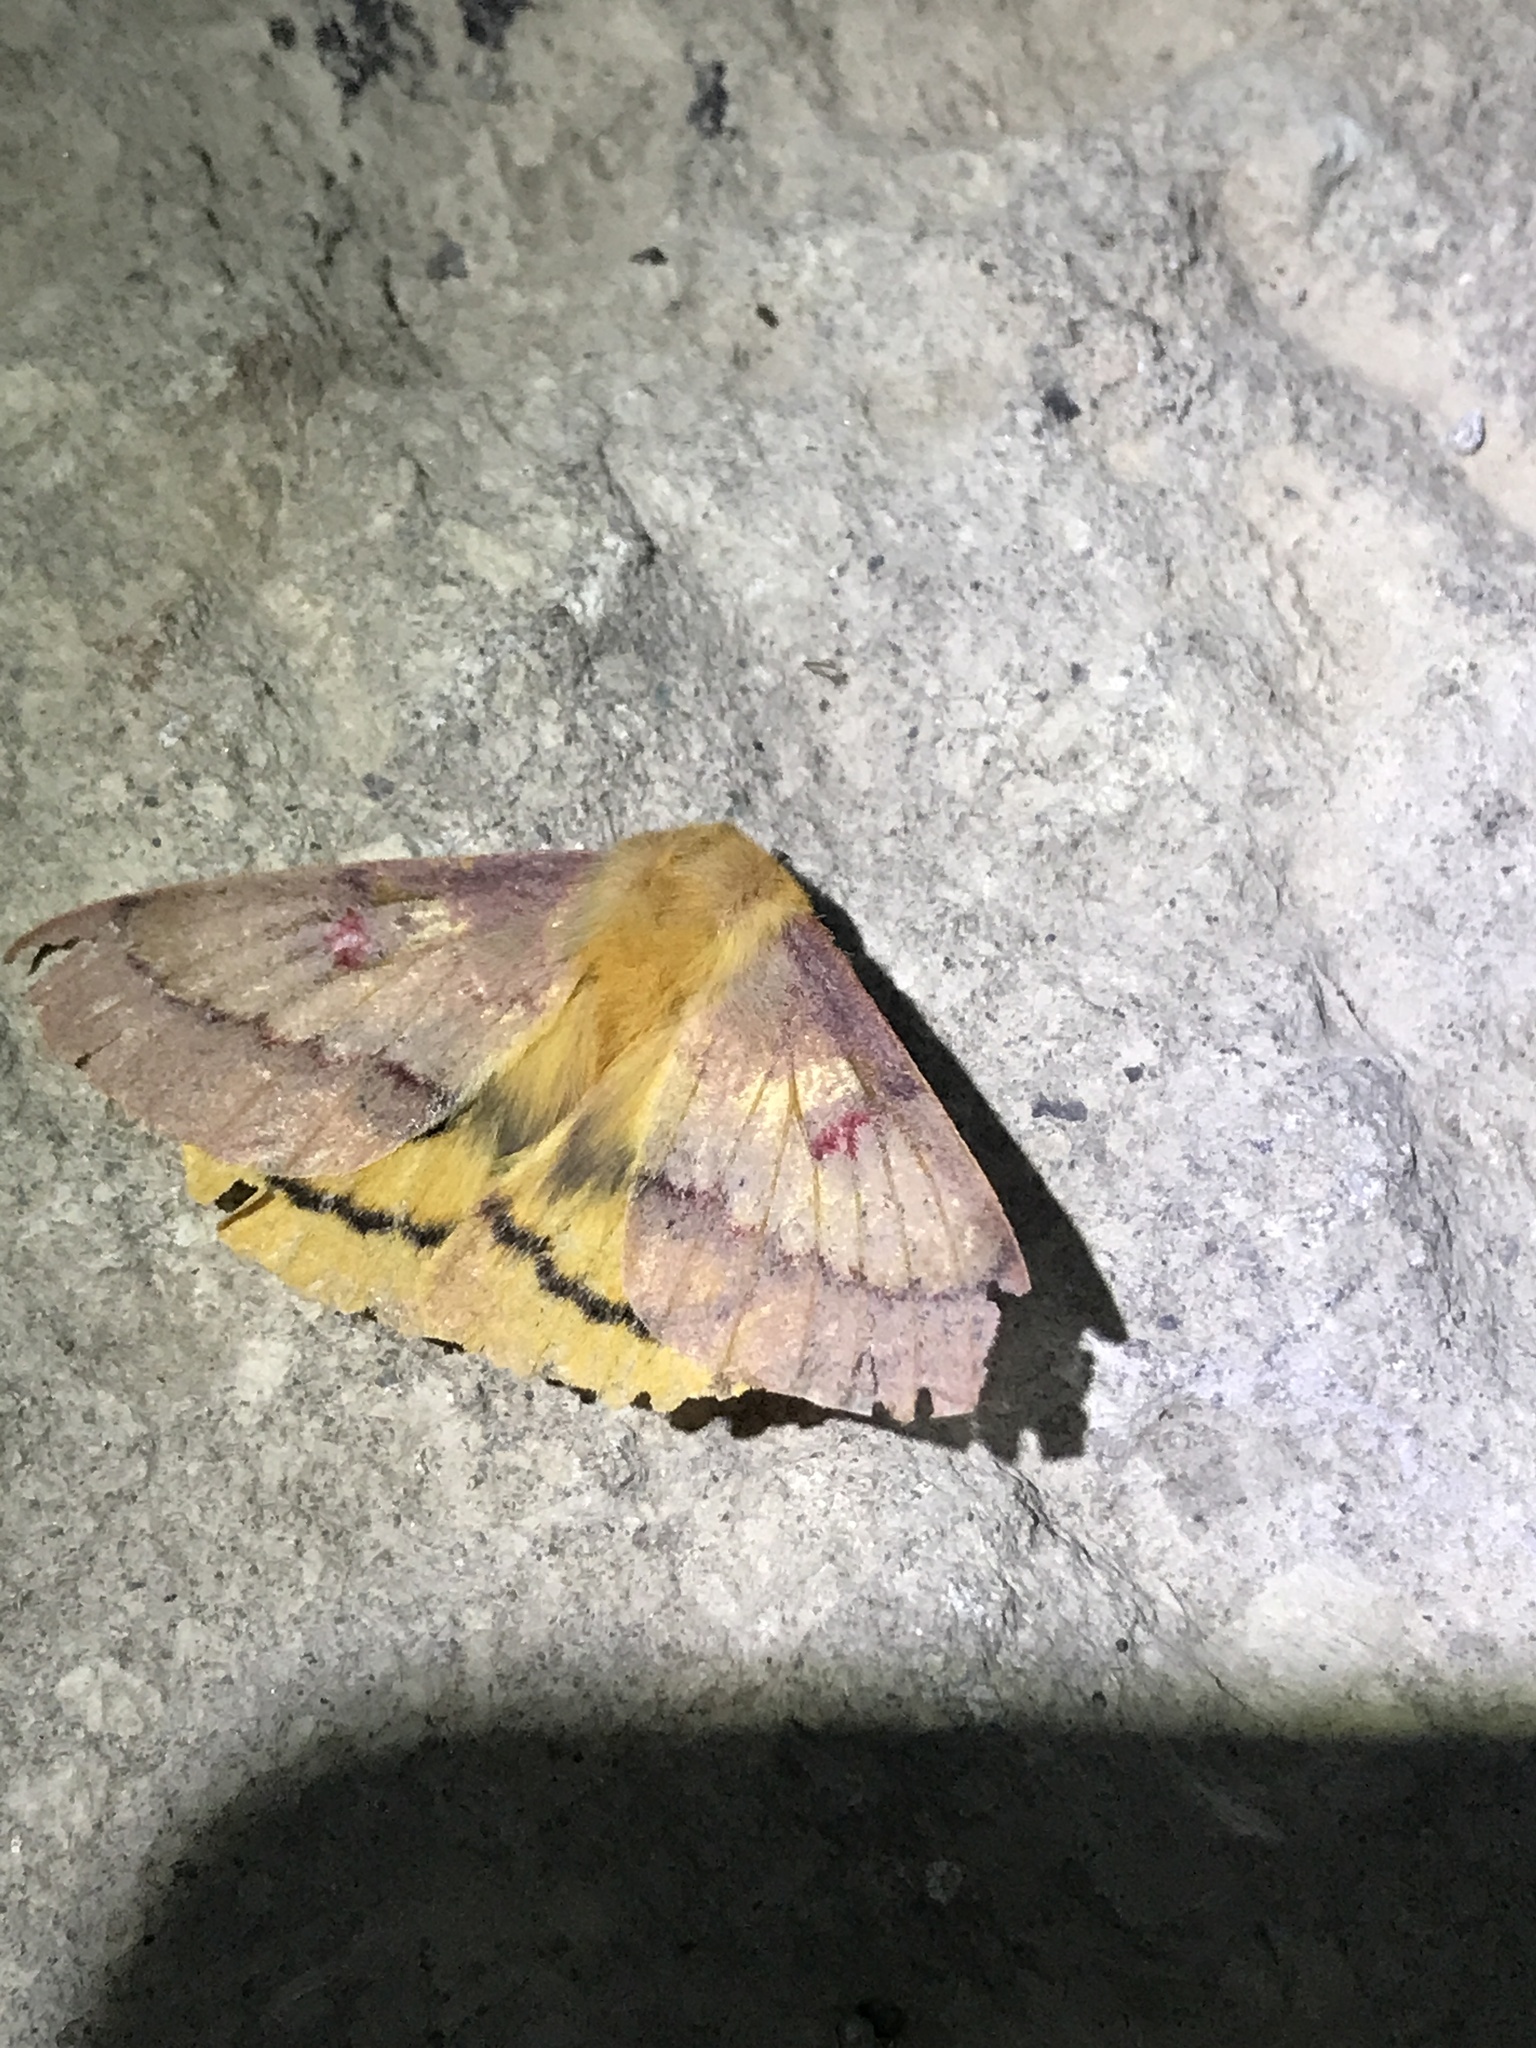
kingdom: Animalia
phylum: Arthropoda
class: Insecta
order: Lepidoptera
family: Saturniidae
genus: Adetomeris
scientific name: Adetomeris erythrops
